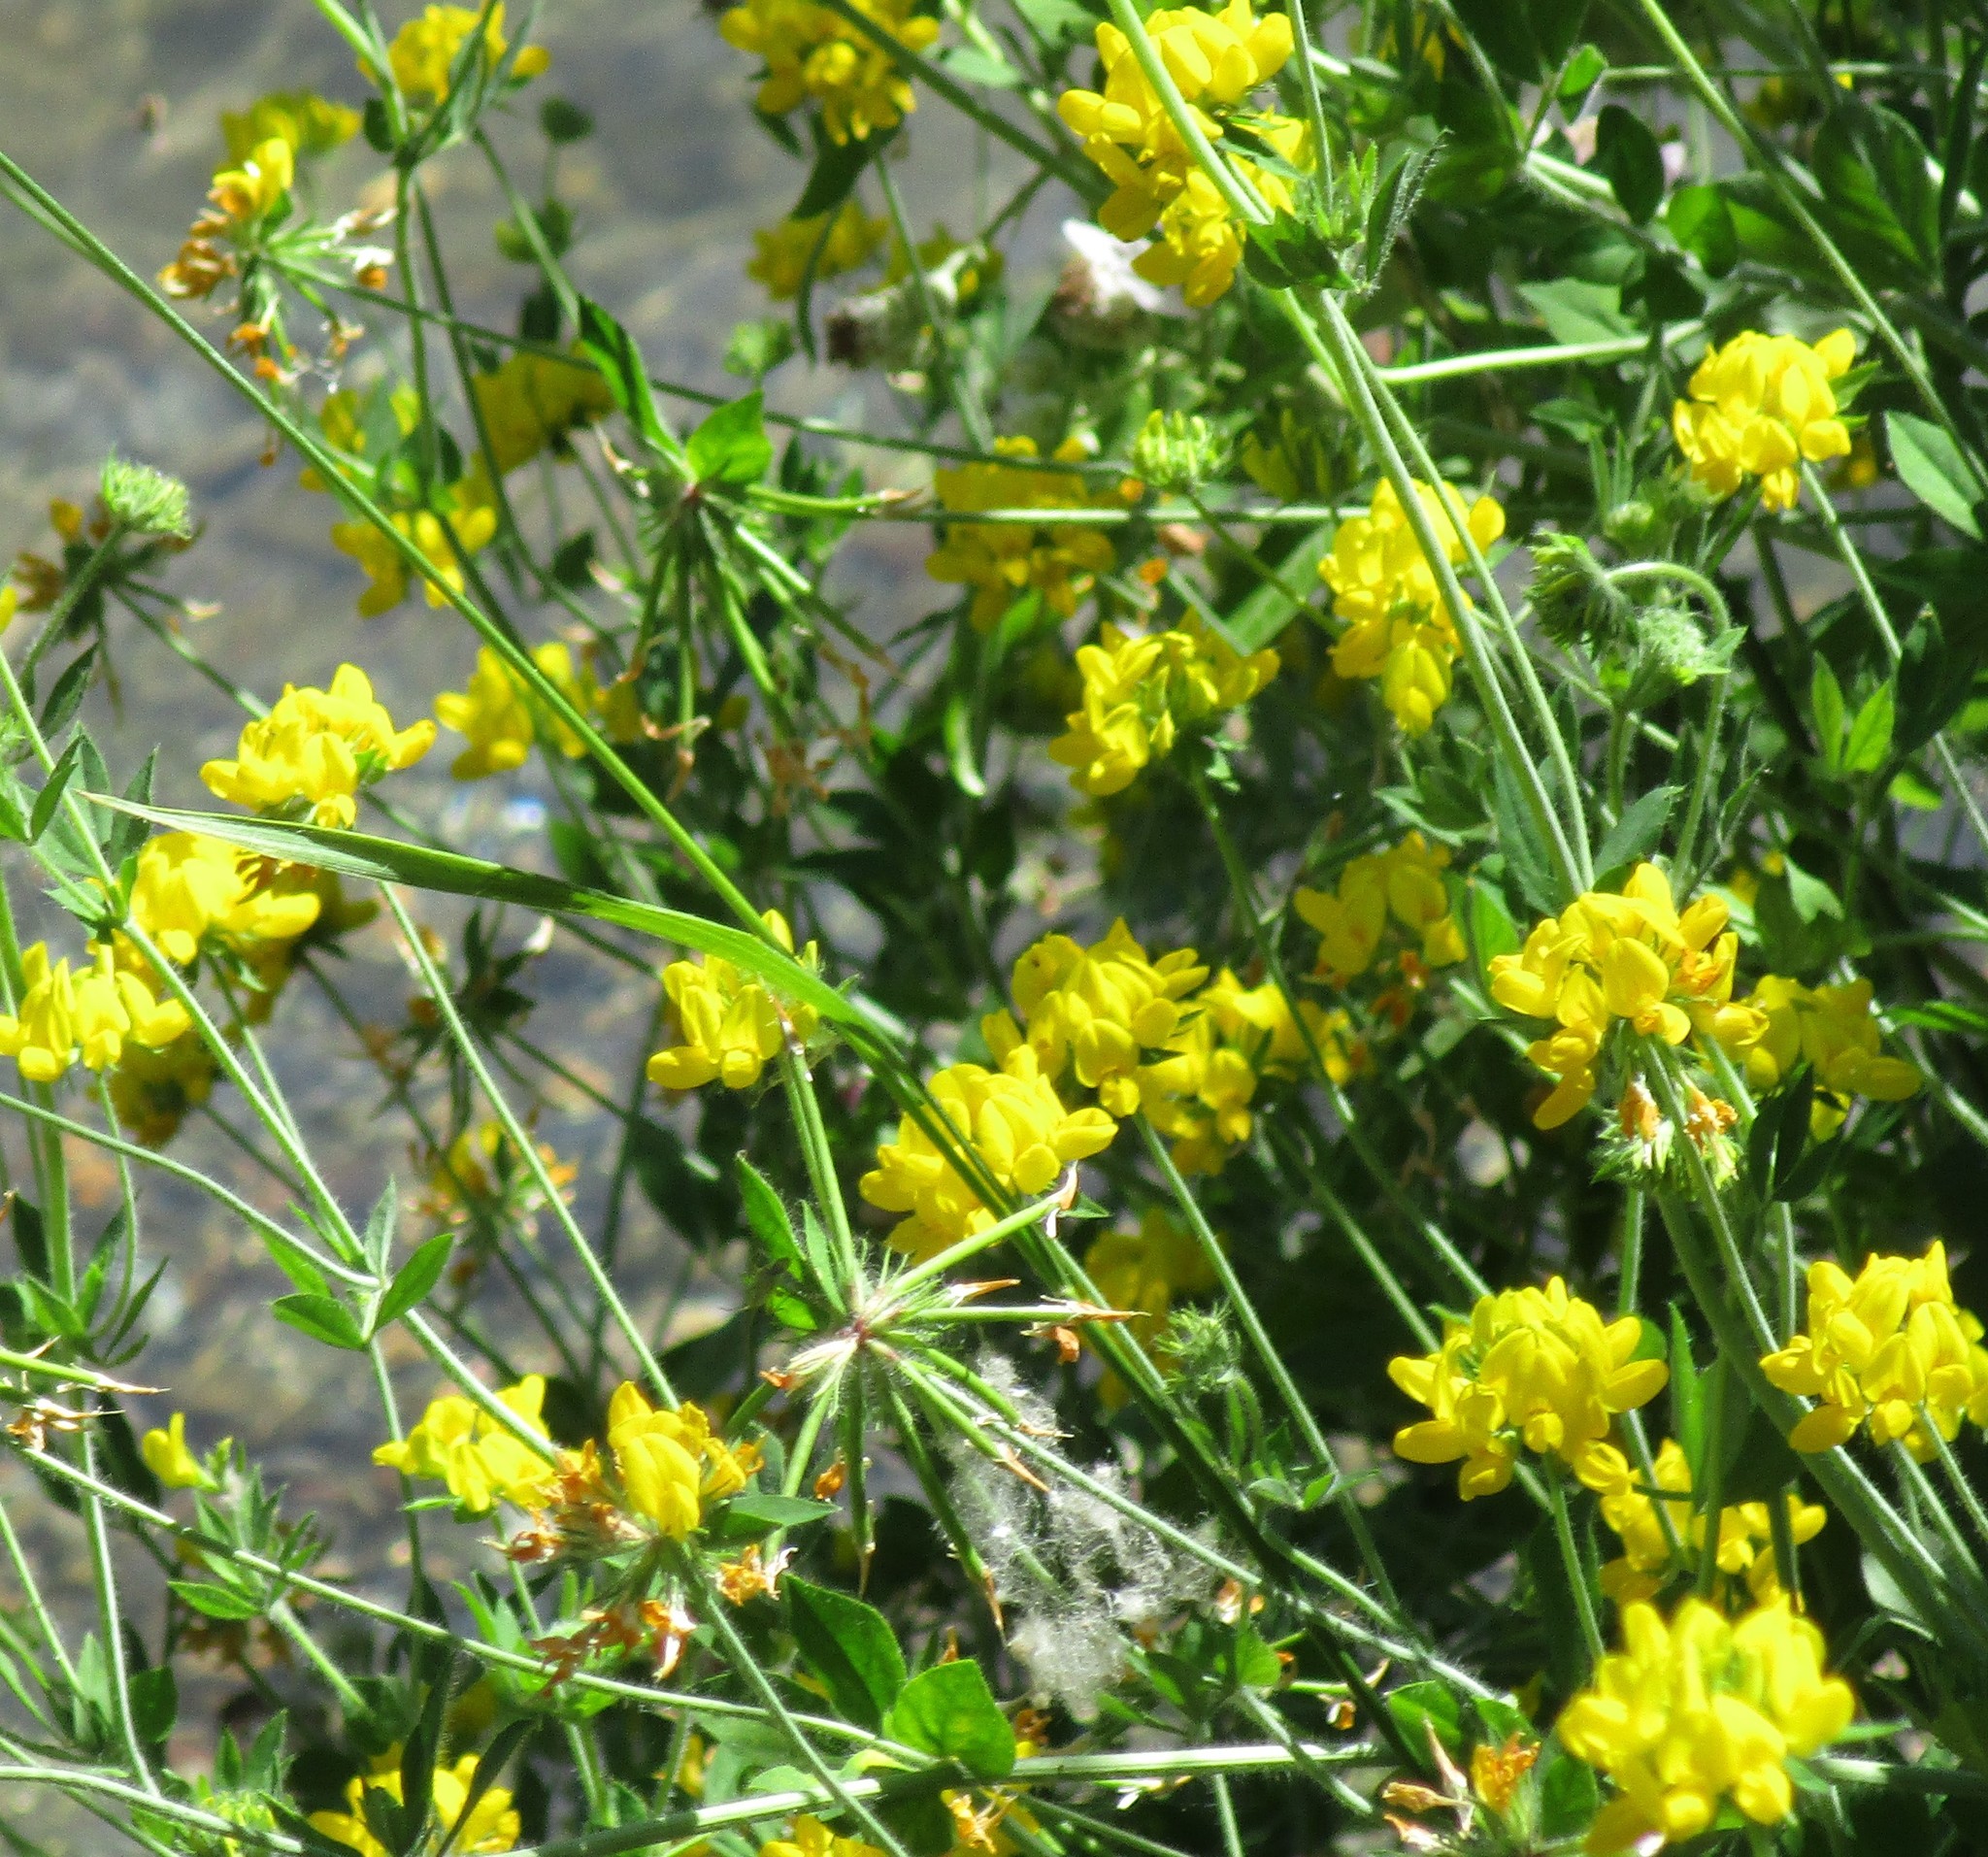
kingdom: Plantae
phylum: Tracheophyta
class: Magnoliopsida
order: Fabales
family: Fabaceae
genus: Lotus
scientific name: Lotus pedunculatus
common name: Greater birdsfoot-trefoil
